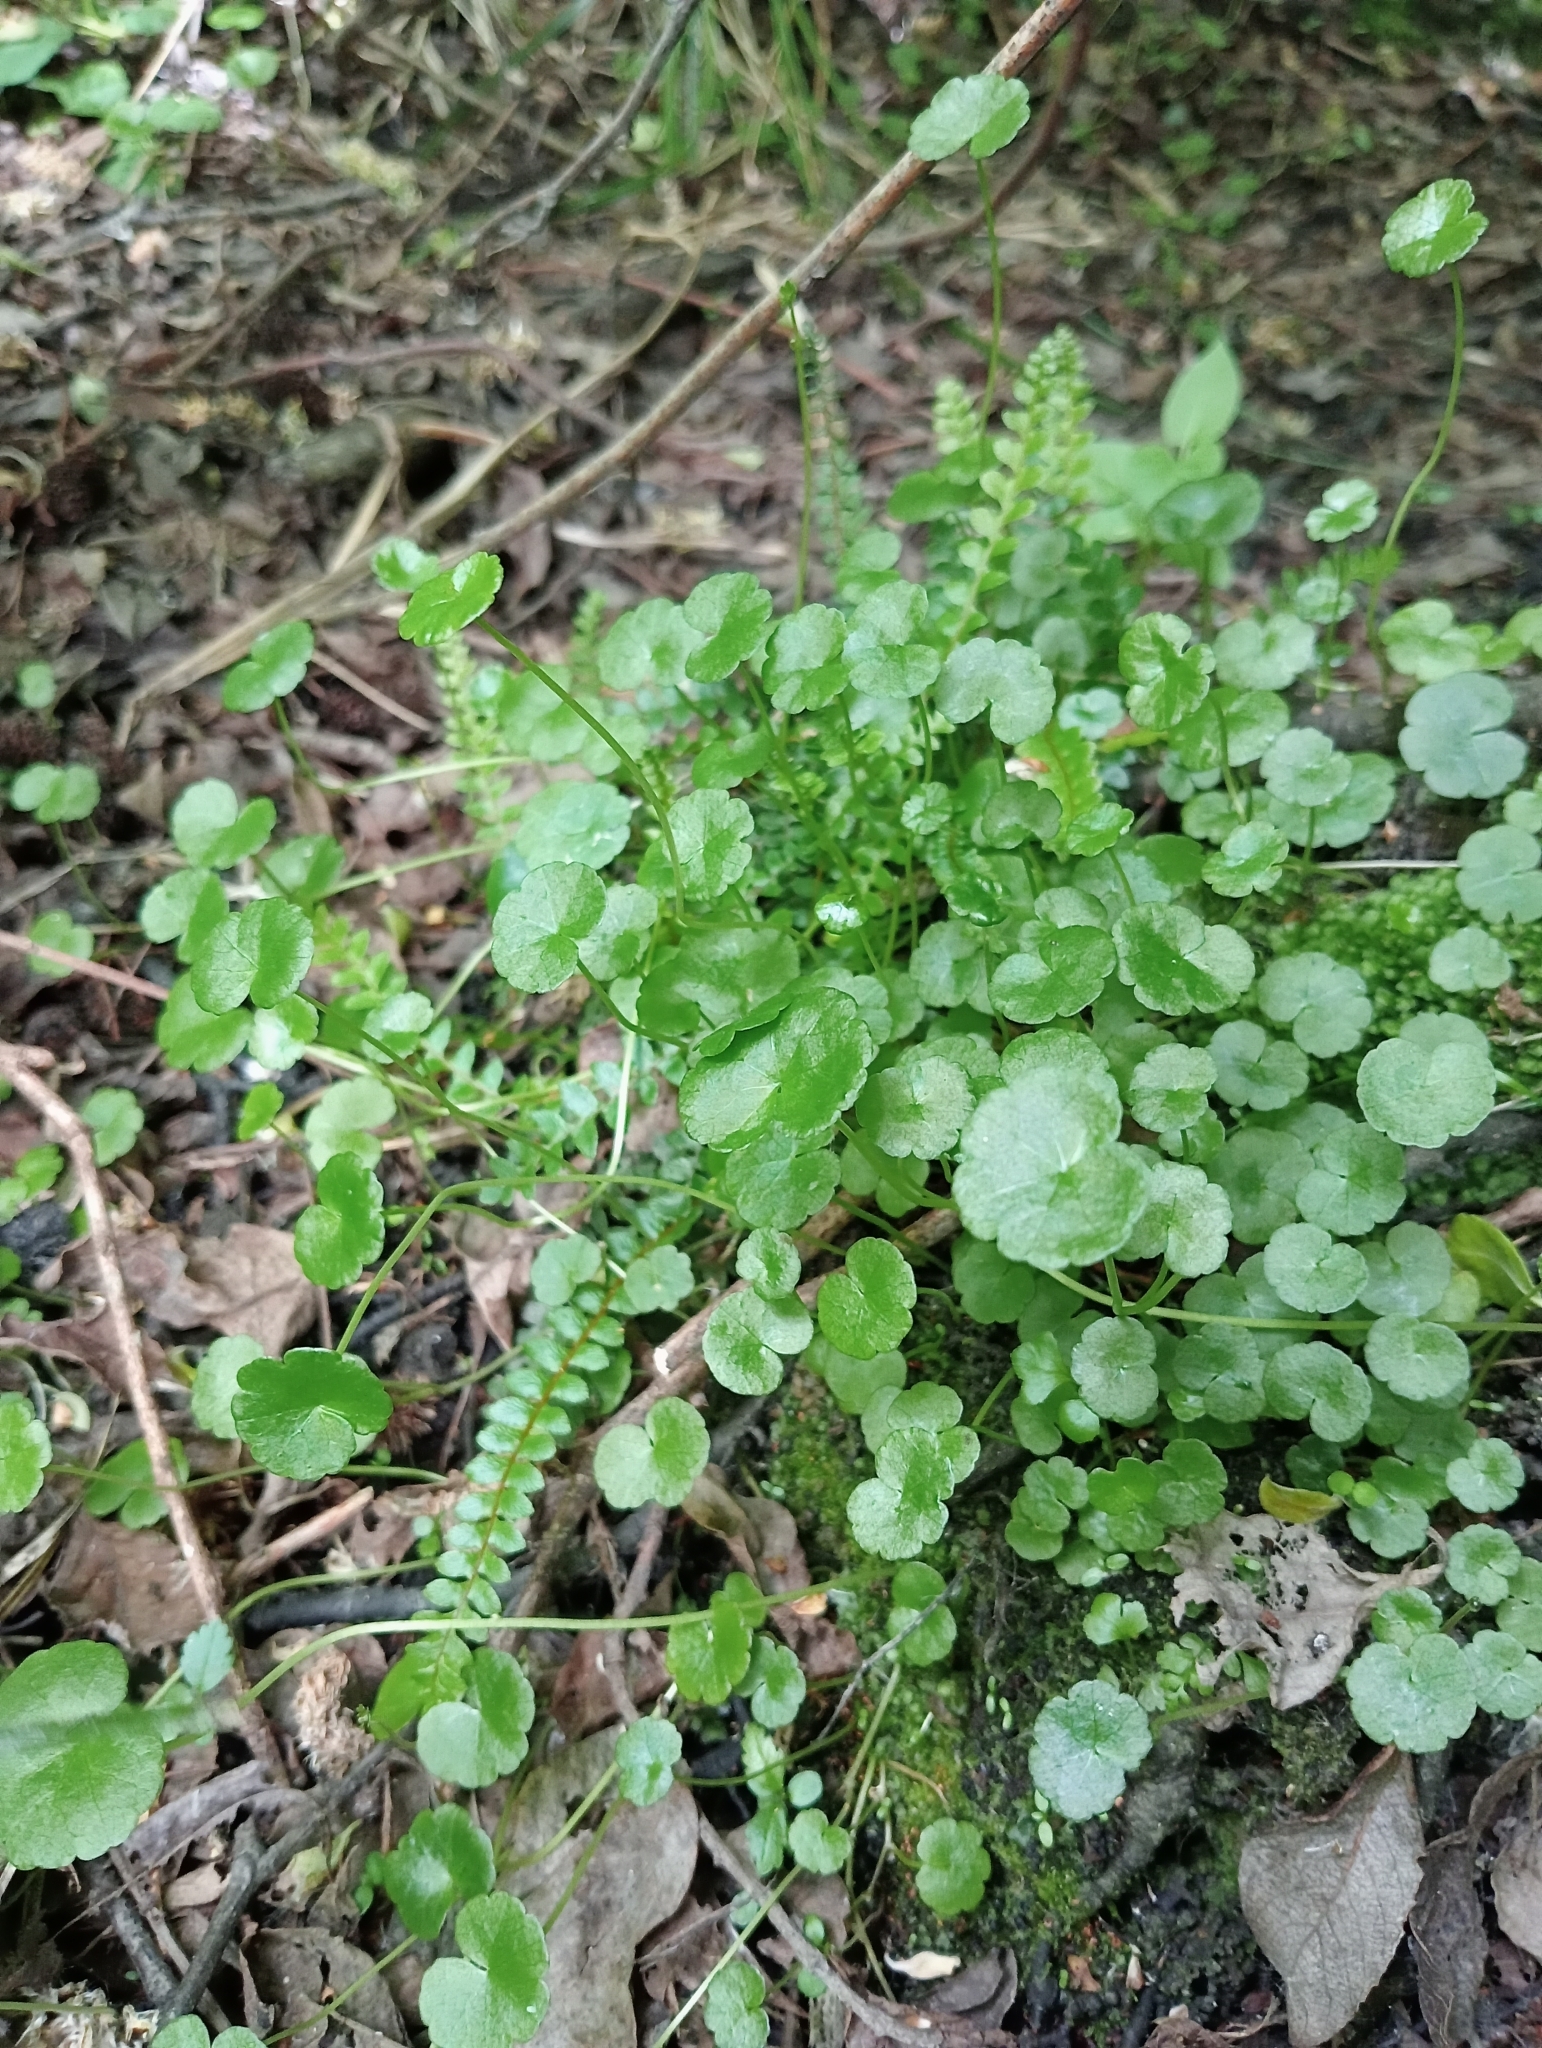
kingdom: Plantae
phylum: Tracheophyta
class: Polypodiopsida
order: Polypodiales
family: Blechnaceae
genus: Austroblechnum
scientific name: Austroblechnum penna-marina
